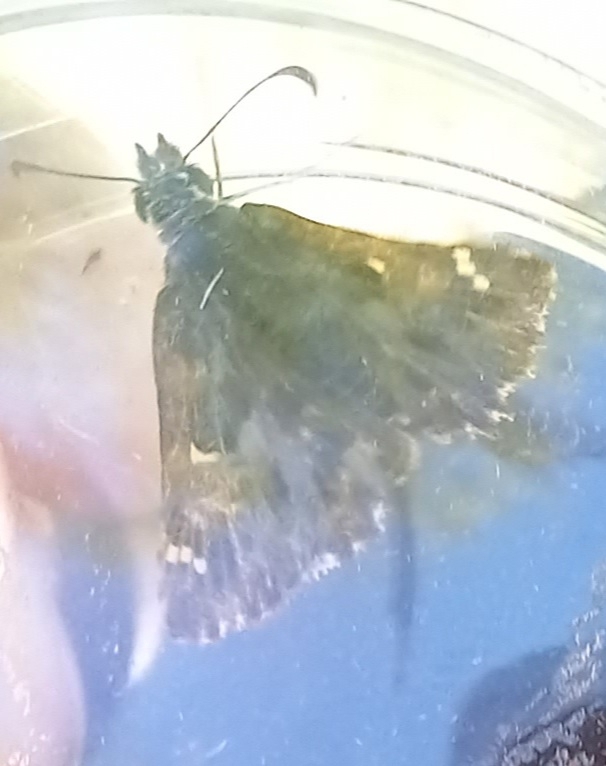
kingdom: Animalia
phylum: Arthropoda
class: Insecta
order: Lepidoptera
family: Hesperiidae
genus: Carcharodus
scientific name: Carcharodus alceae
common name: Mallow skipper
